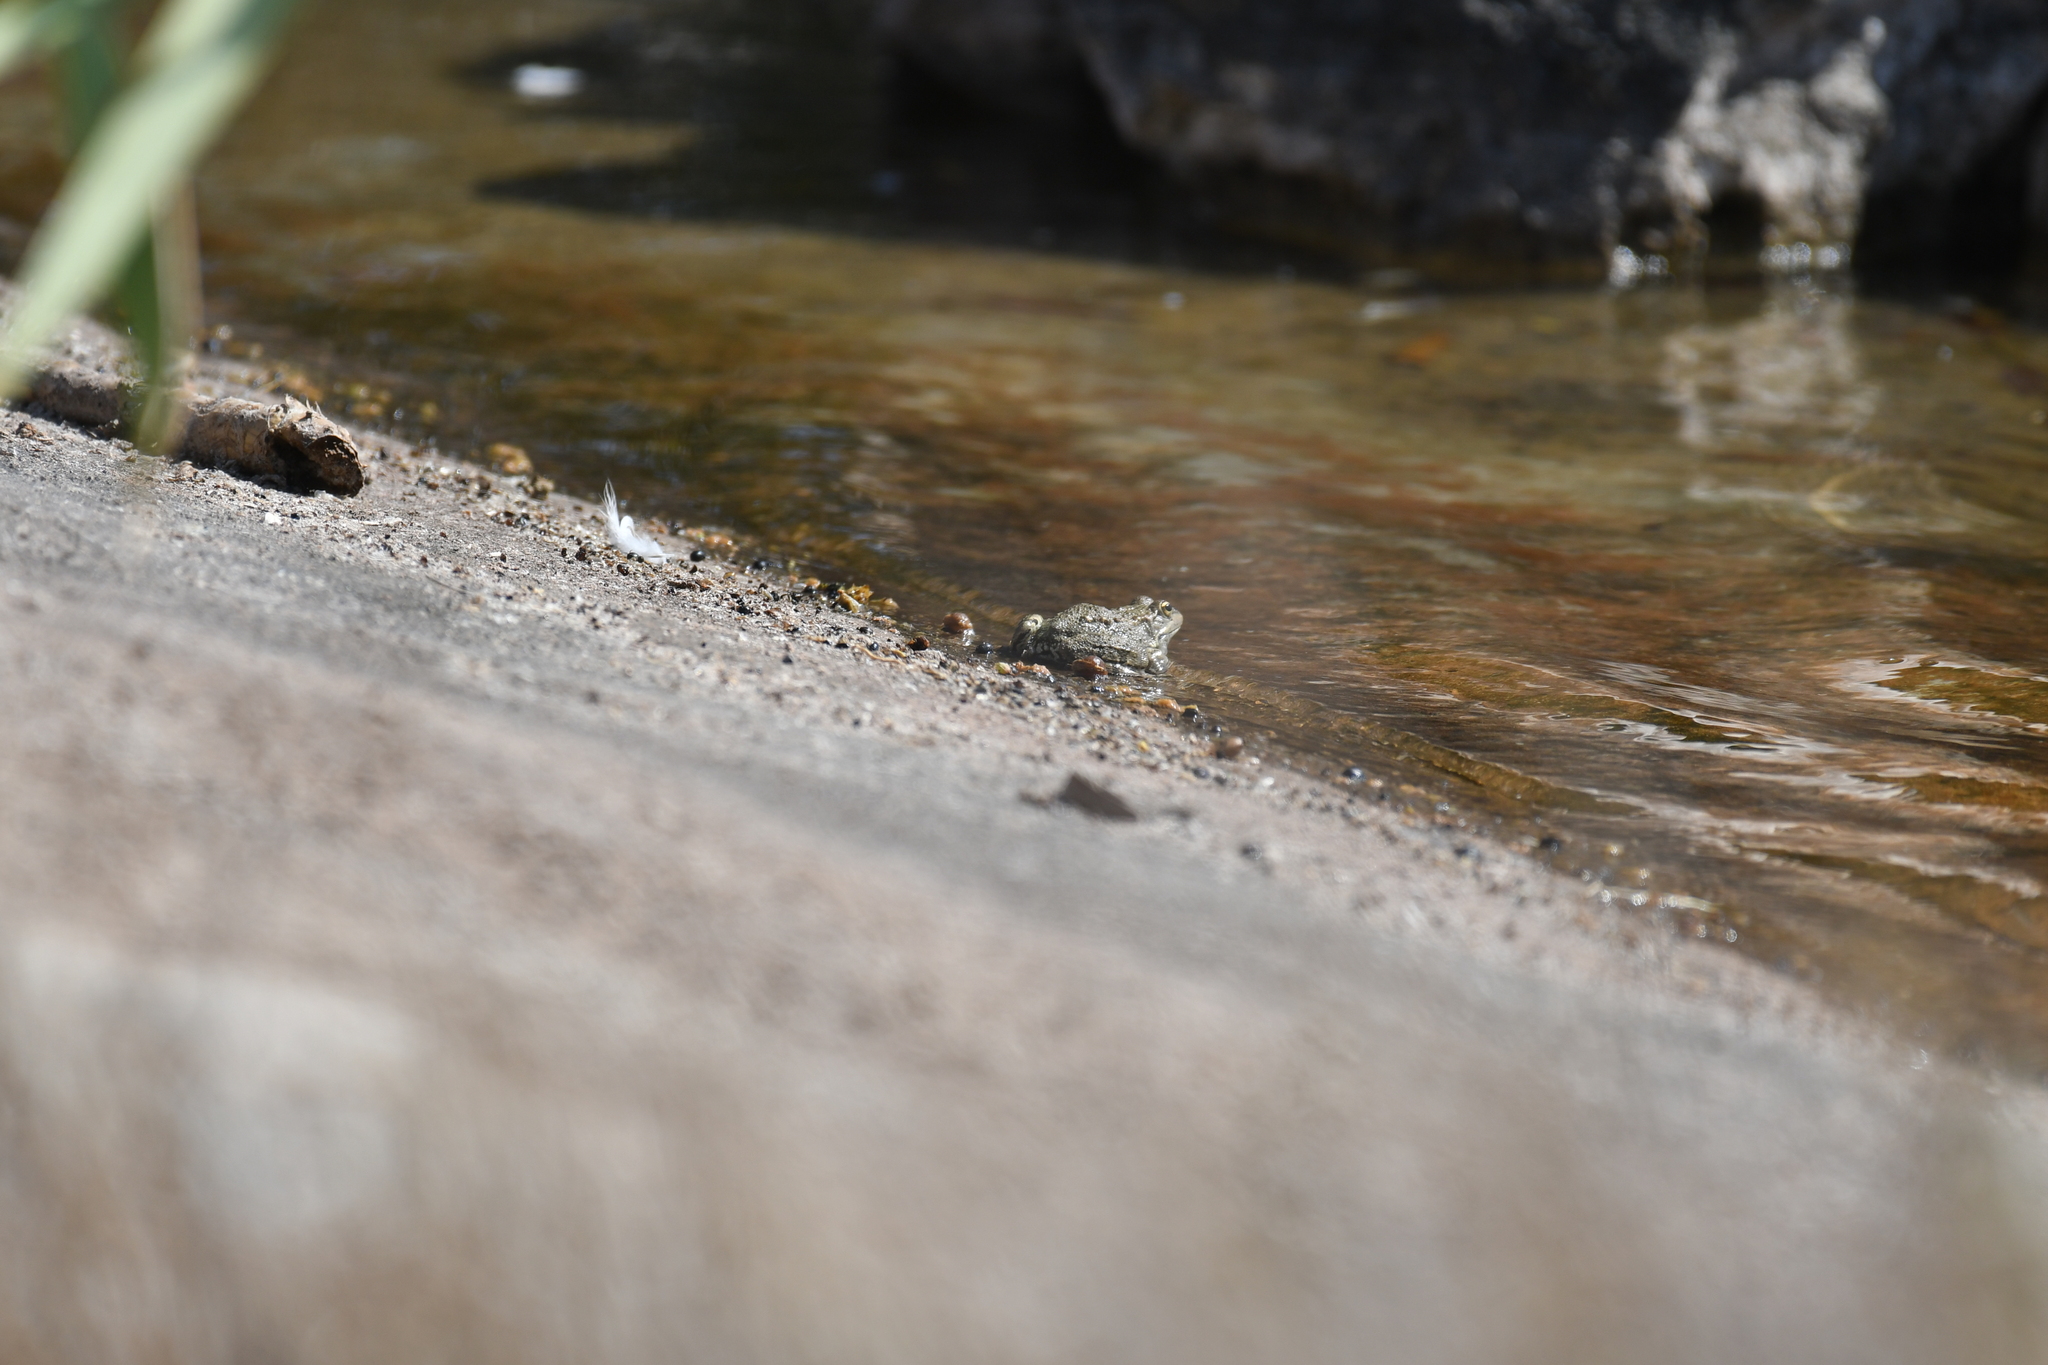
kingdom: Animalia
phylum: Chordata
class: Amphibia
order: Anura
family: Ranidae
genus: Pelophylax
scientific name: Pelophylax saharicus
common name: Sahara frog
